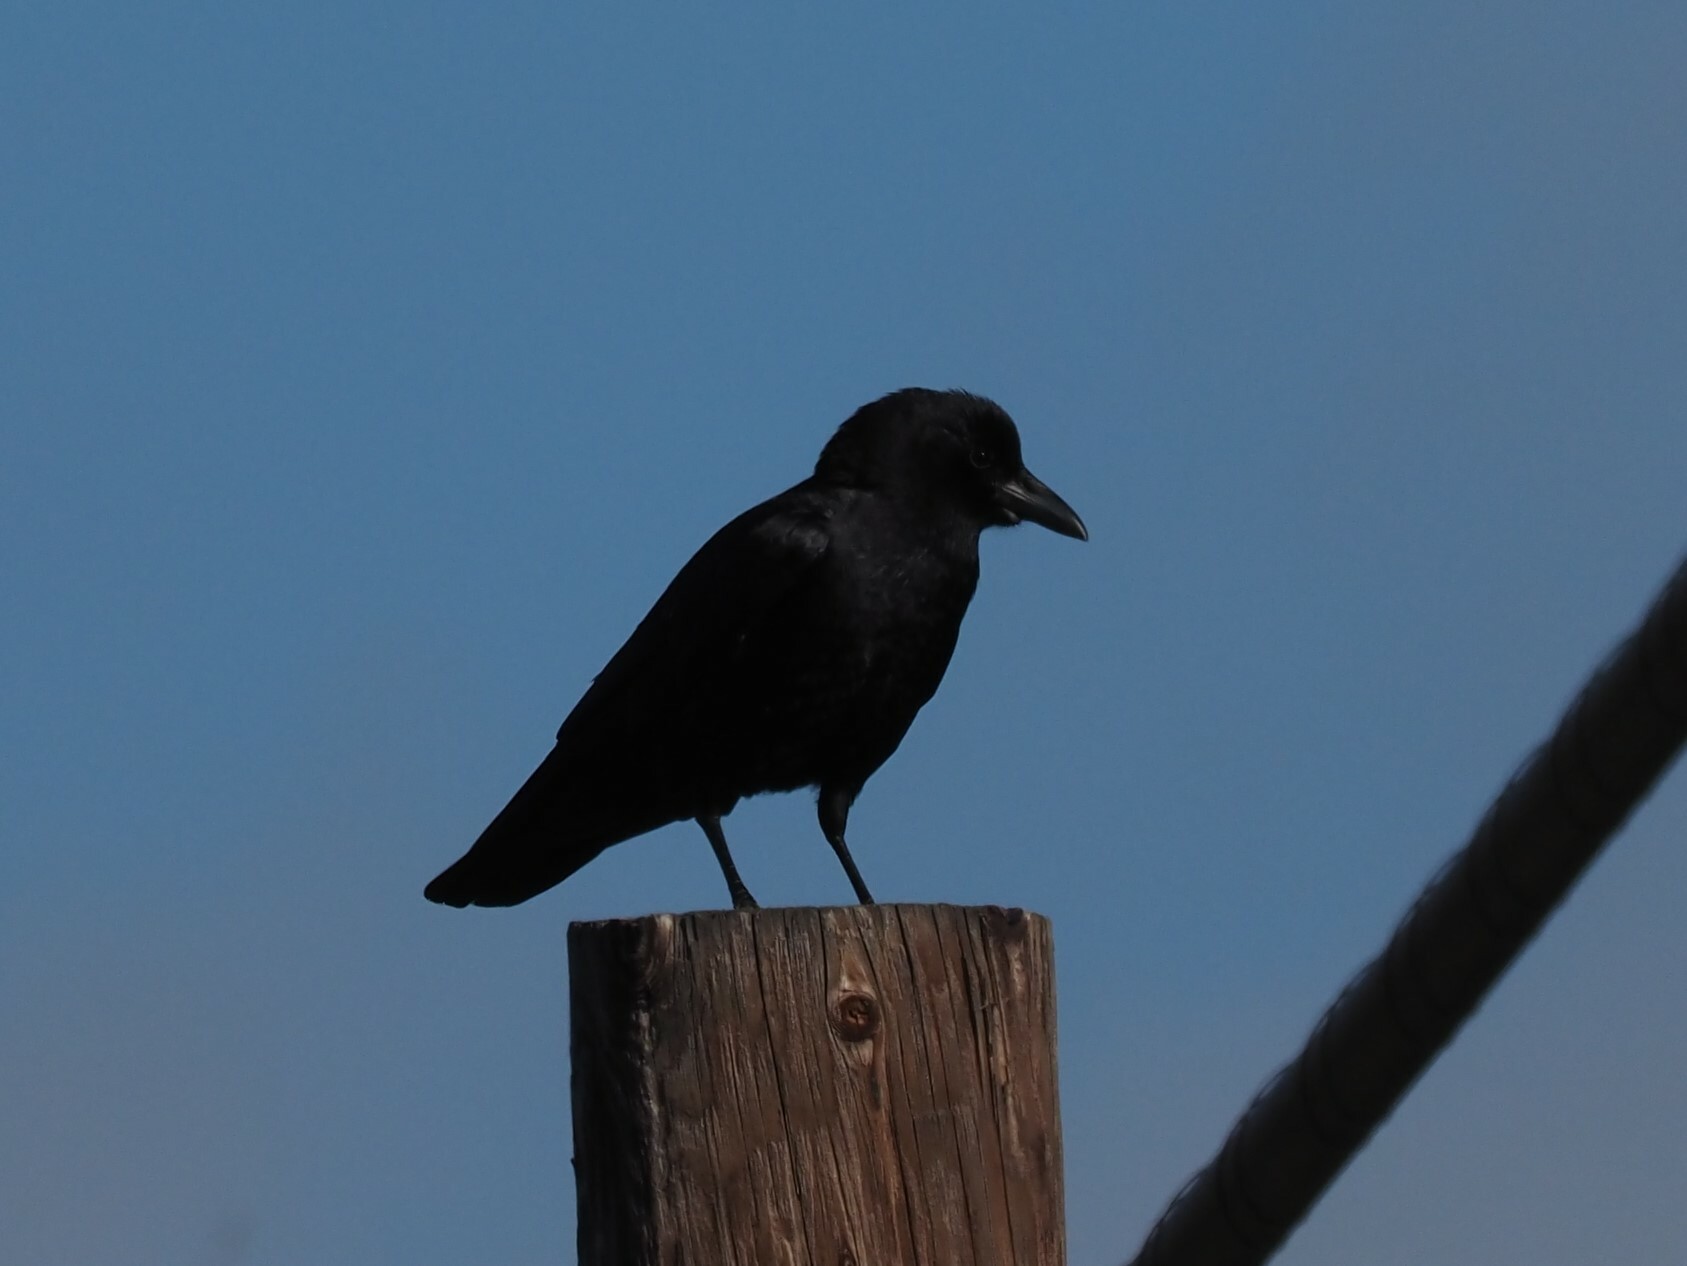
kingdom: Animalia
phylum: Chordata
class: Aves
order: Passeriformes
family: Corvidae
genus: Corvus
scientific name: Corvus brachyrhynchos
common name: American crow
